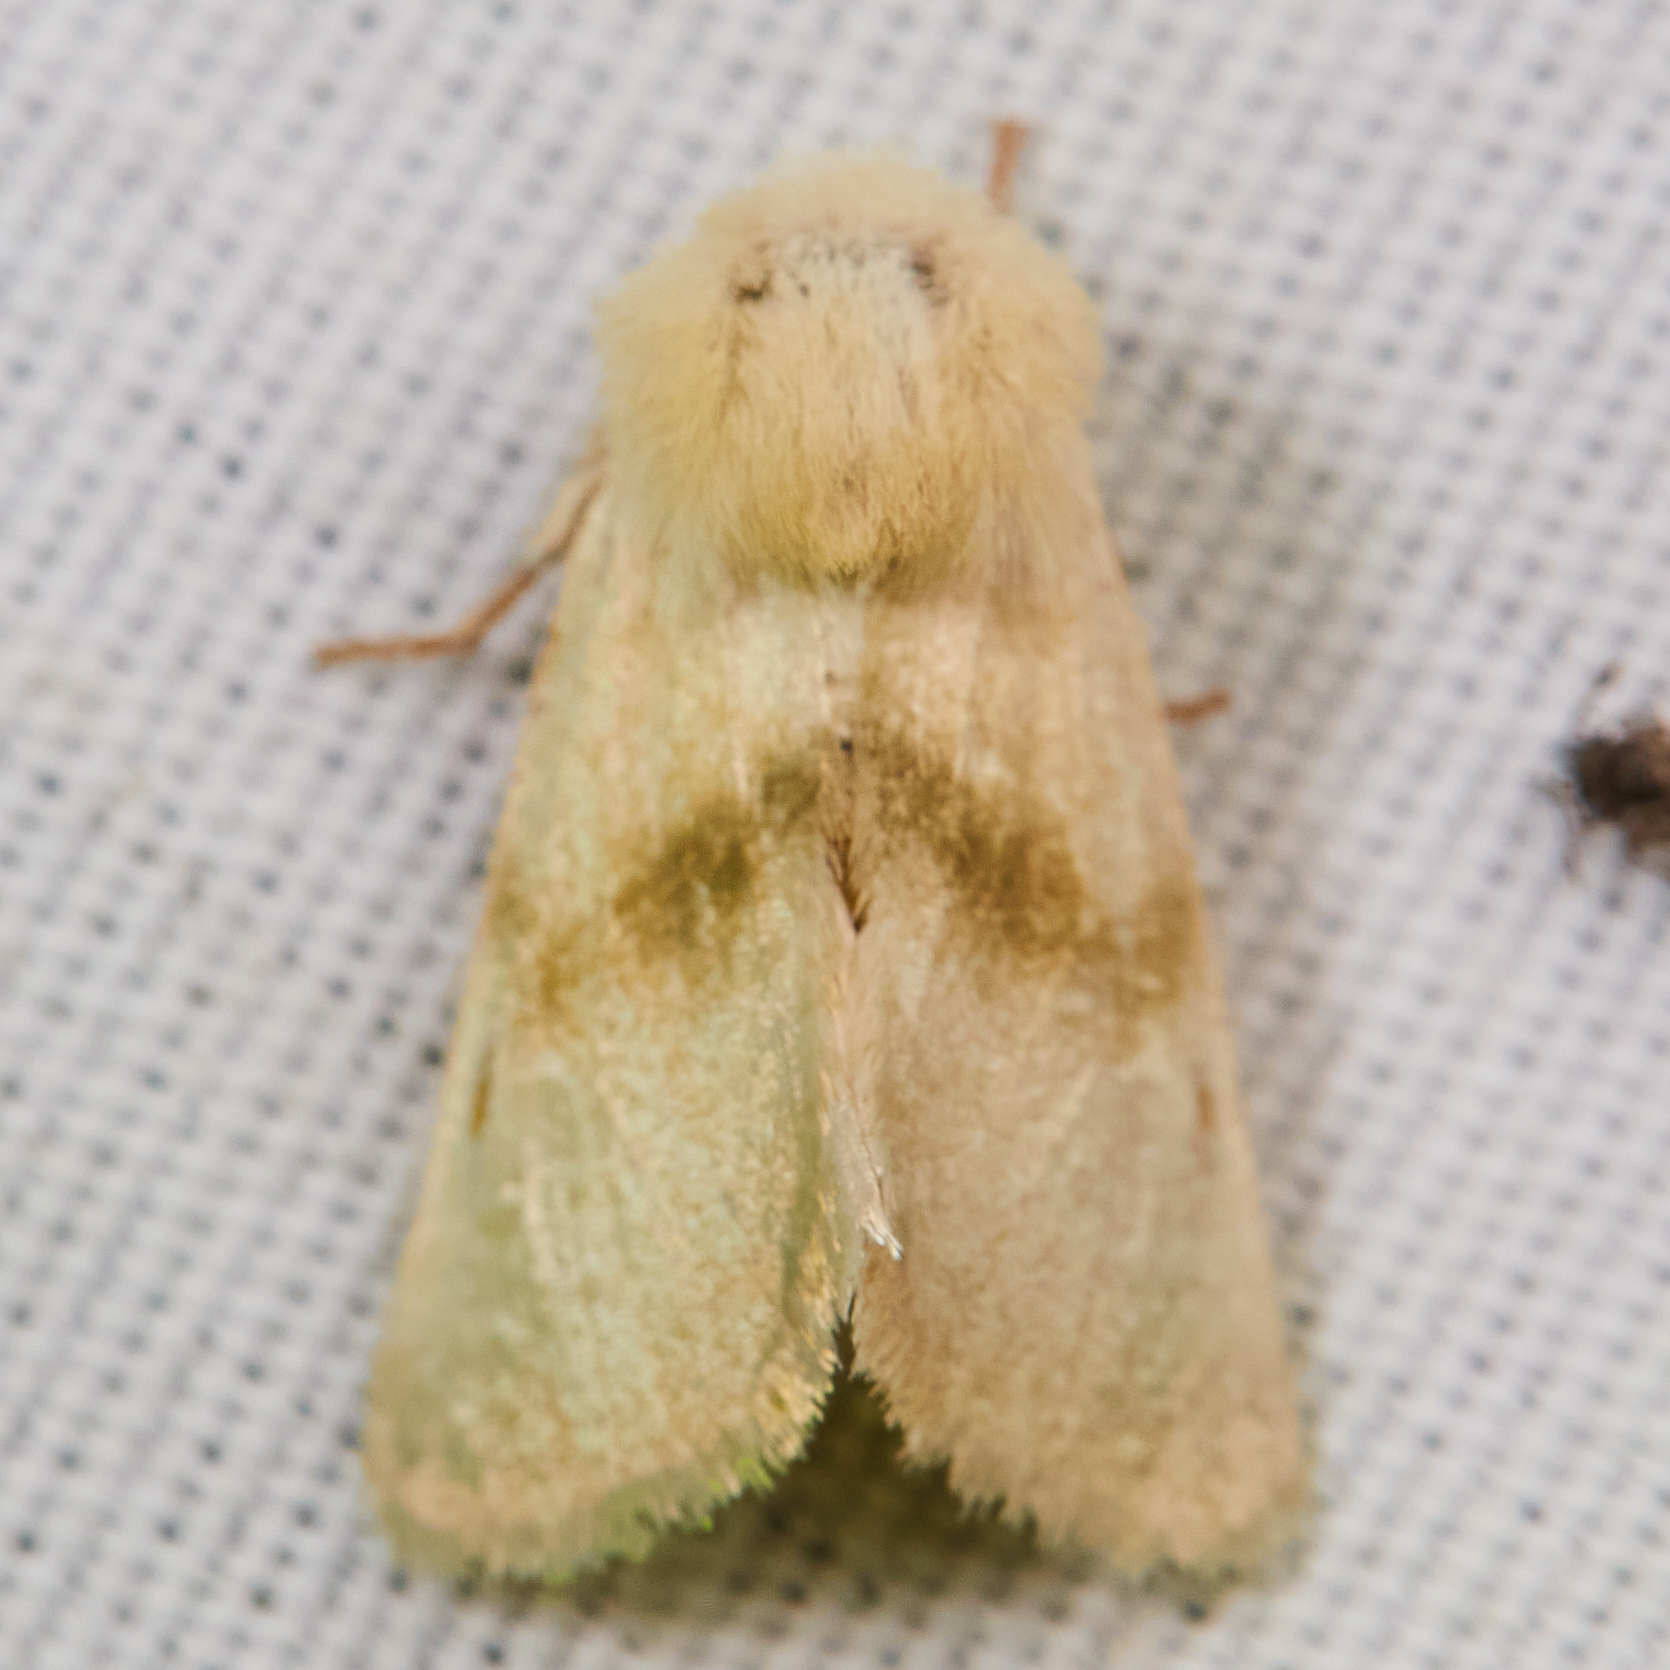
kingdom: Animalia
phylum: Arthropoda
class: Insecta
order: Lepidoptera
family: Noctuidae
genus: Nocloa
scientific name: Nocloa pallens
